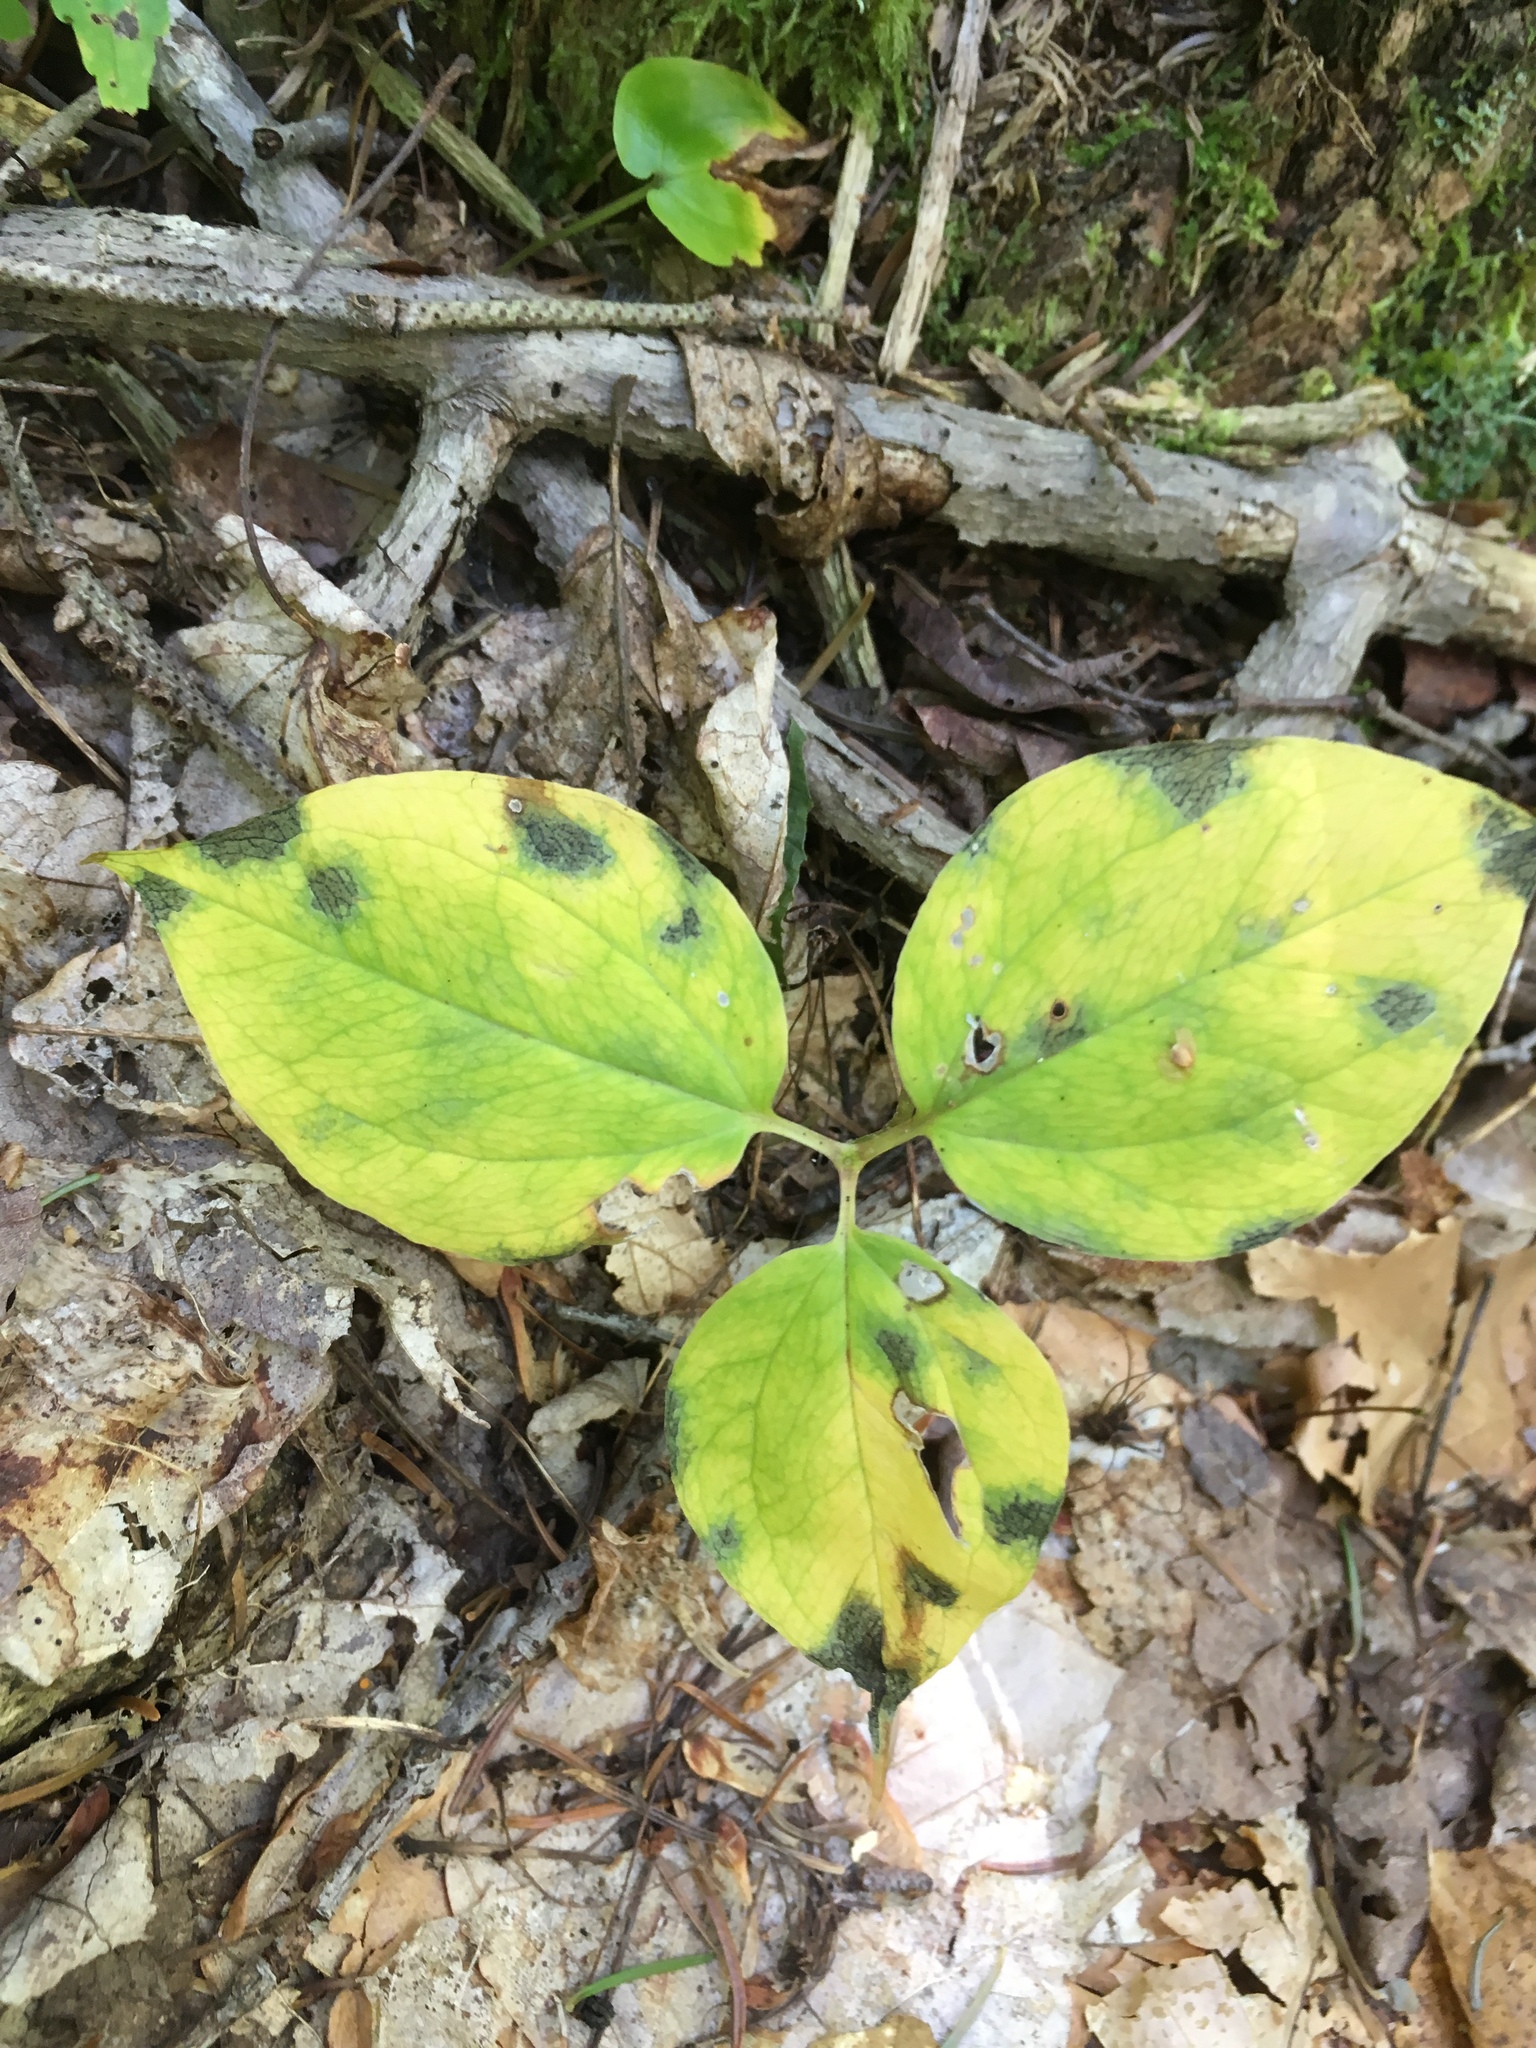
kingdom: Plantae
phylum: Tracheophyta
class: Liliopsida
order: Liliales
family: Melanthiaceae
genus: Trillium
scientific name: Trillium undulatum
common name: Paint trillium
